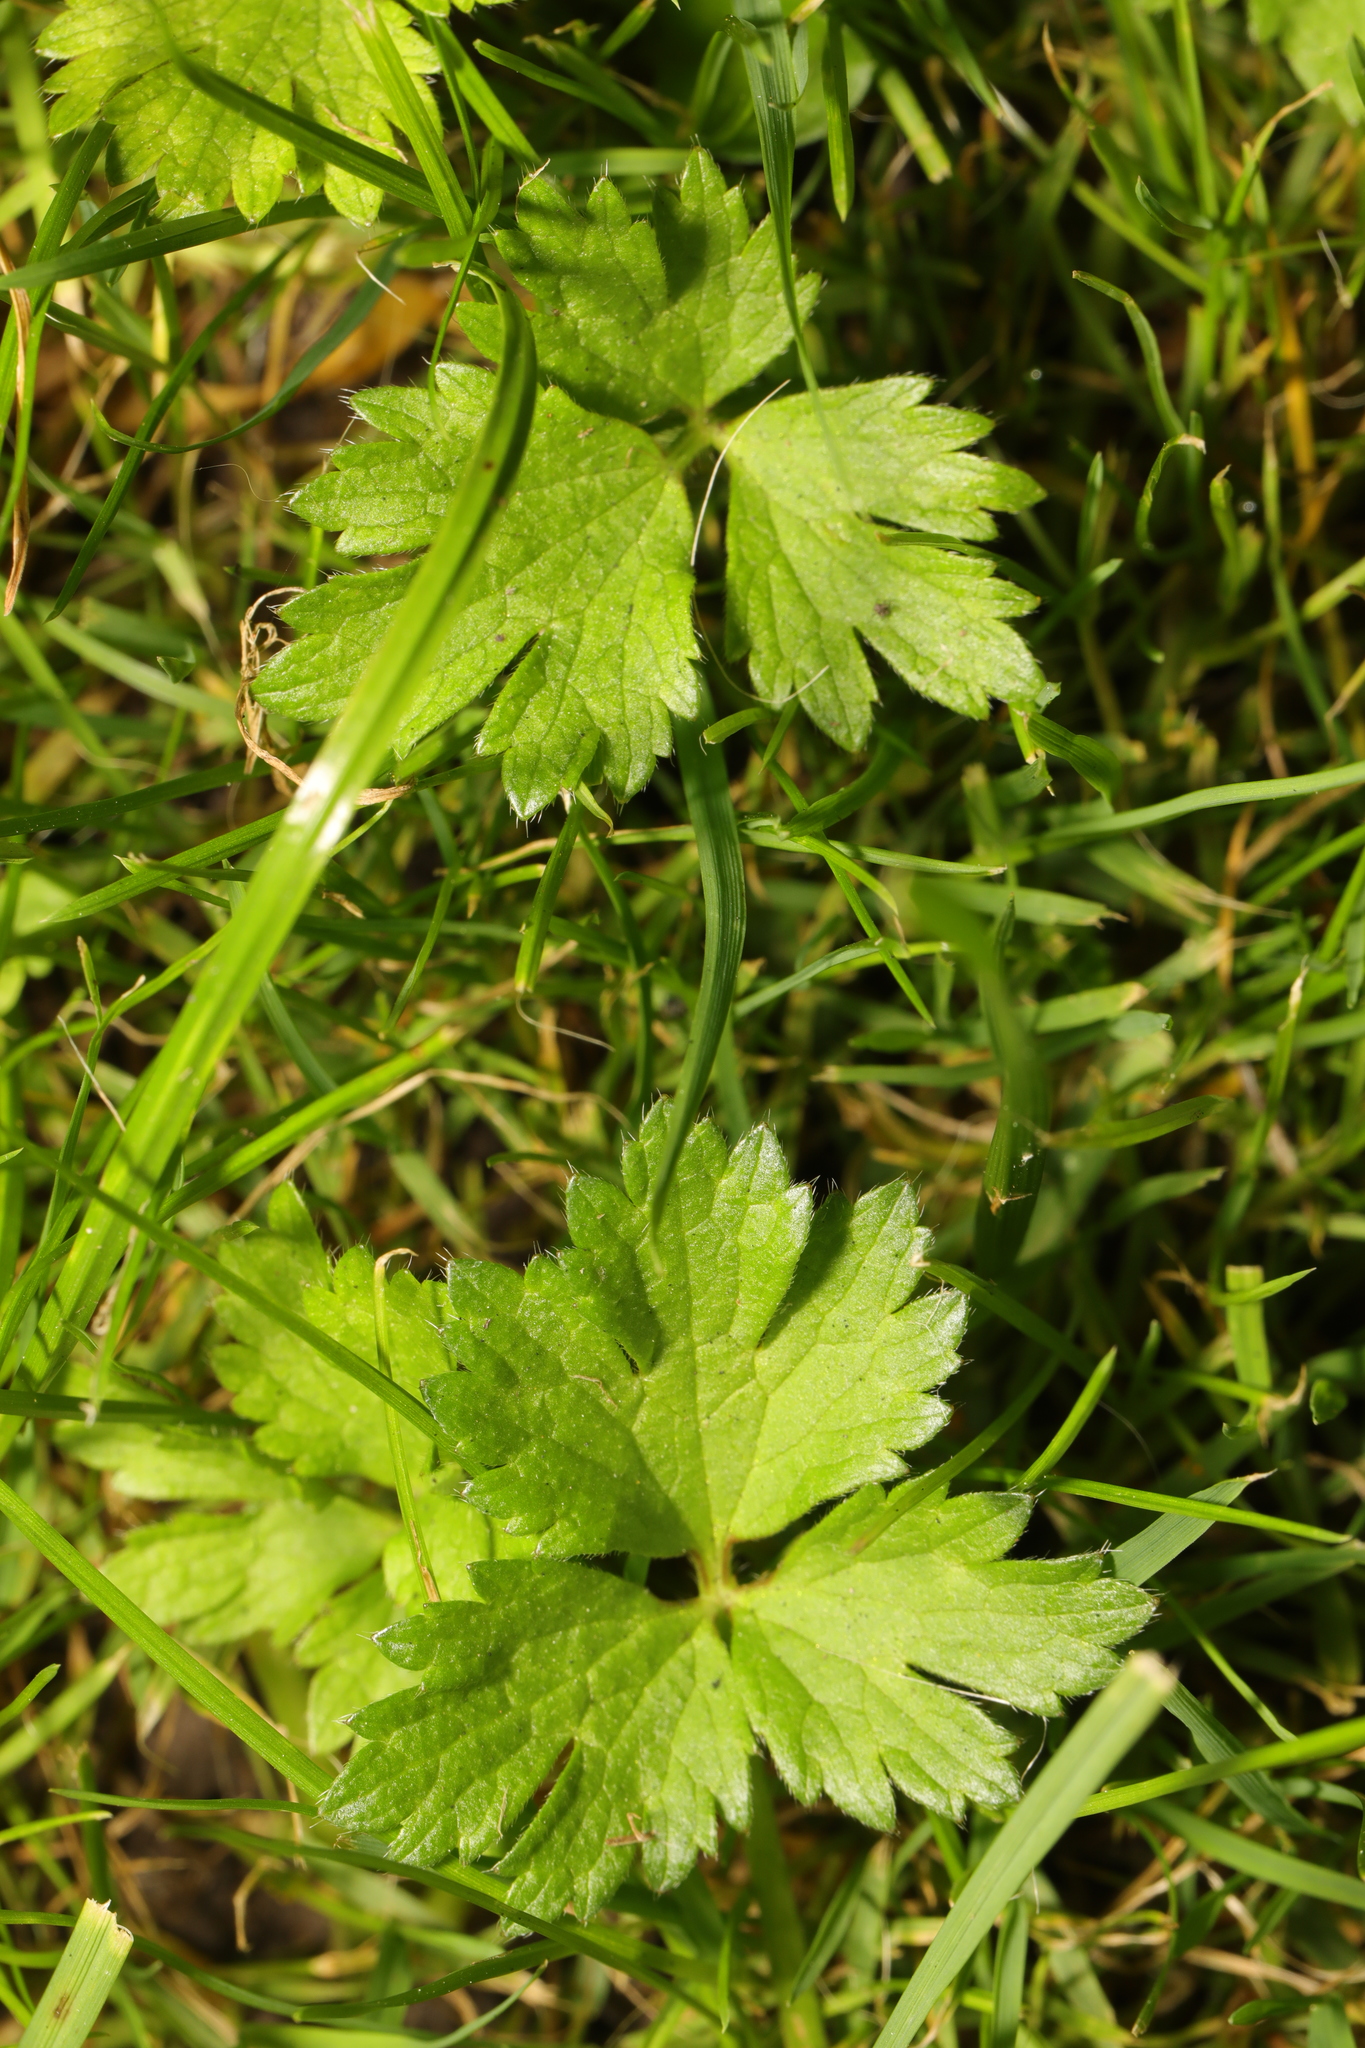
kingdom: Plantae
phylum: Tracheophyta
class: Magnoliopsida
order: Ranunculales
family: Ranunculaceae
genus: Ranunculus
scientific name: Ranunculus repens
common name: Creeping buttercup
